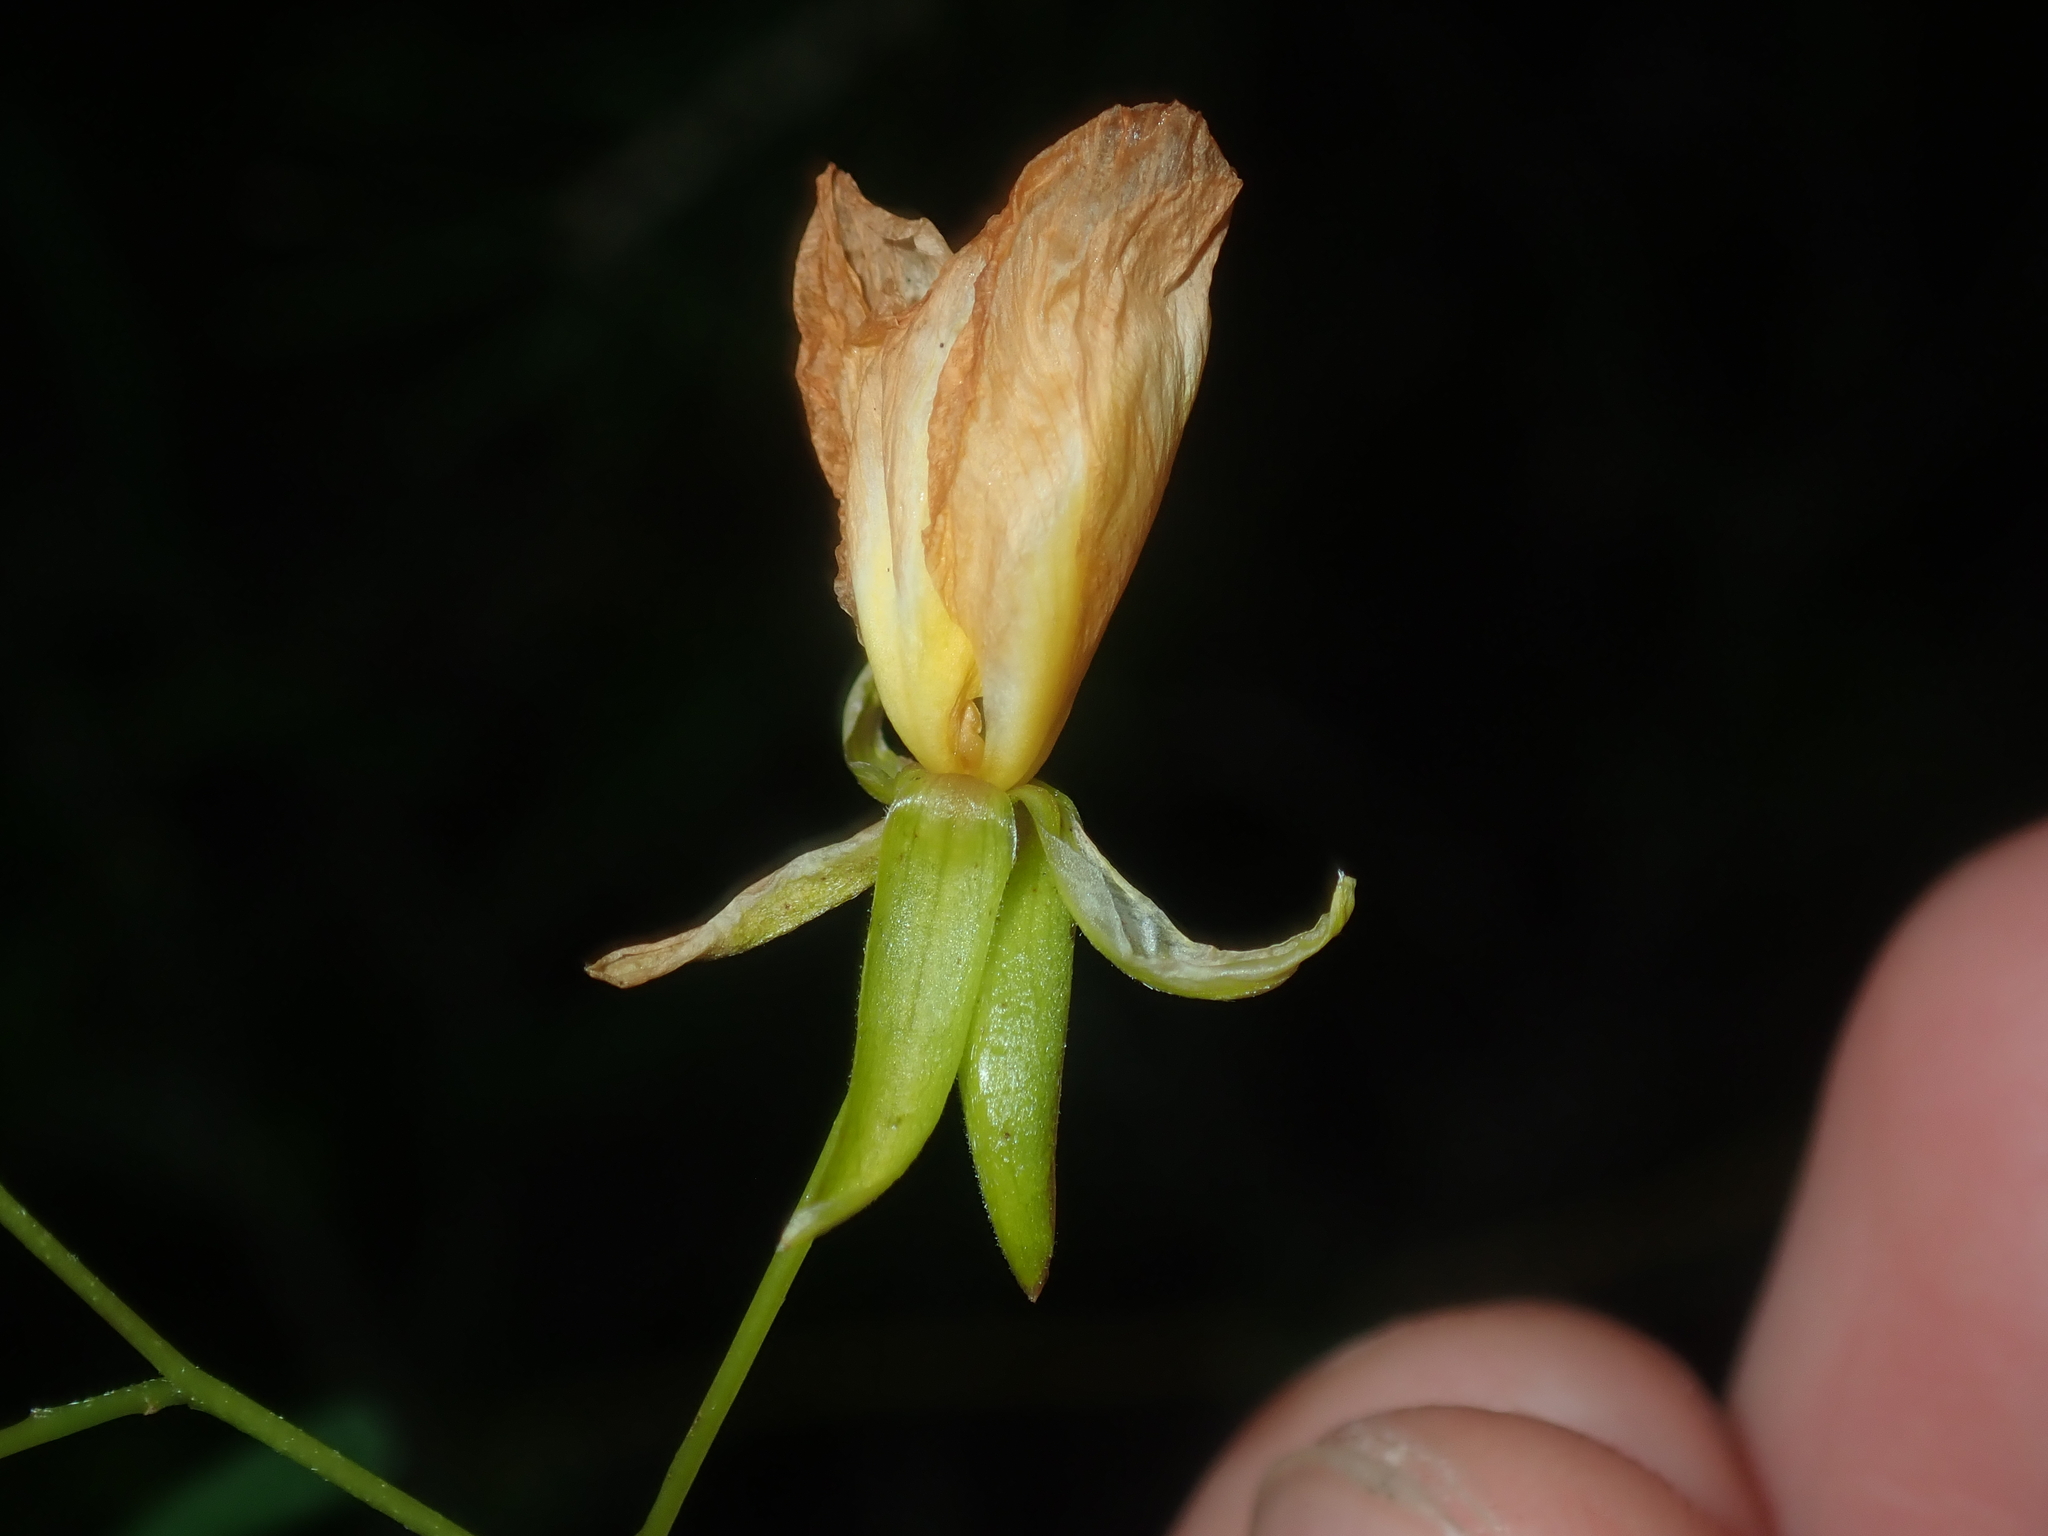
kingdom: Plantae
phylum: Tracheophyta
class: Magnoliopsida
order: Fabales
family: Fabaceae
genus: Labichea
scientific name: Labichea cassioides
